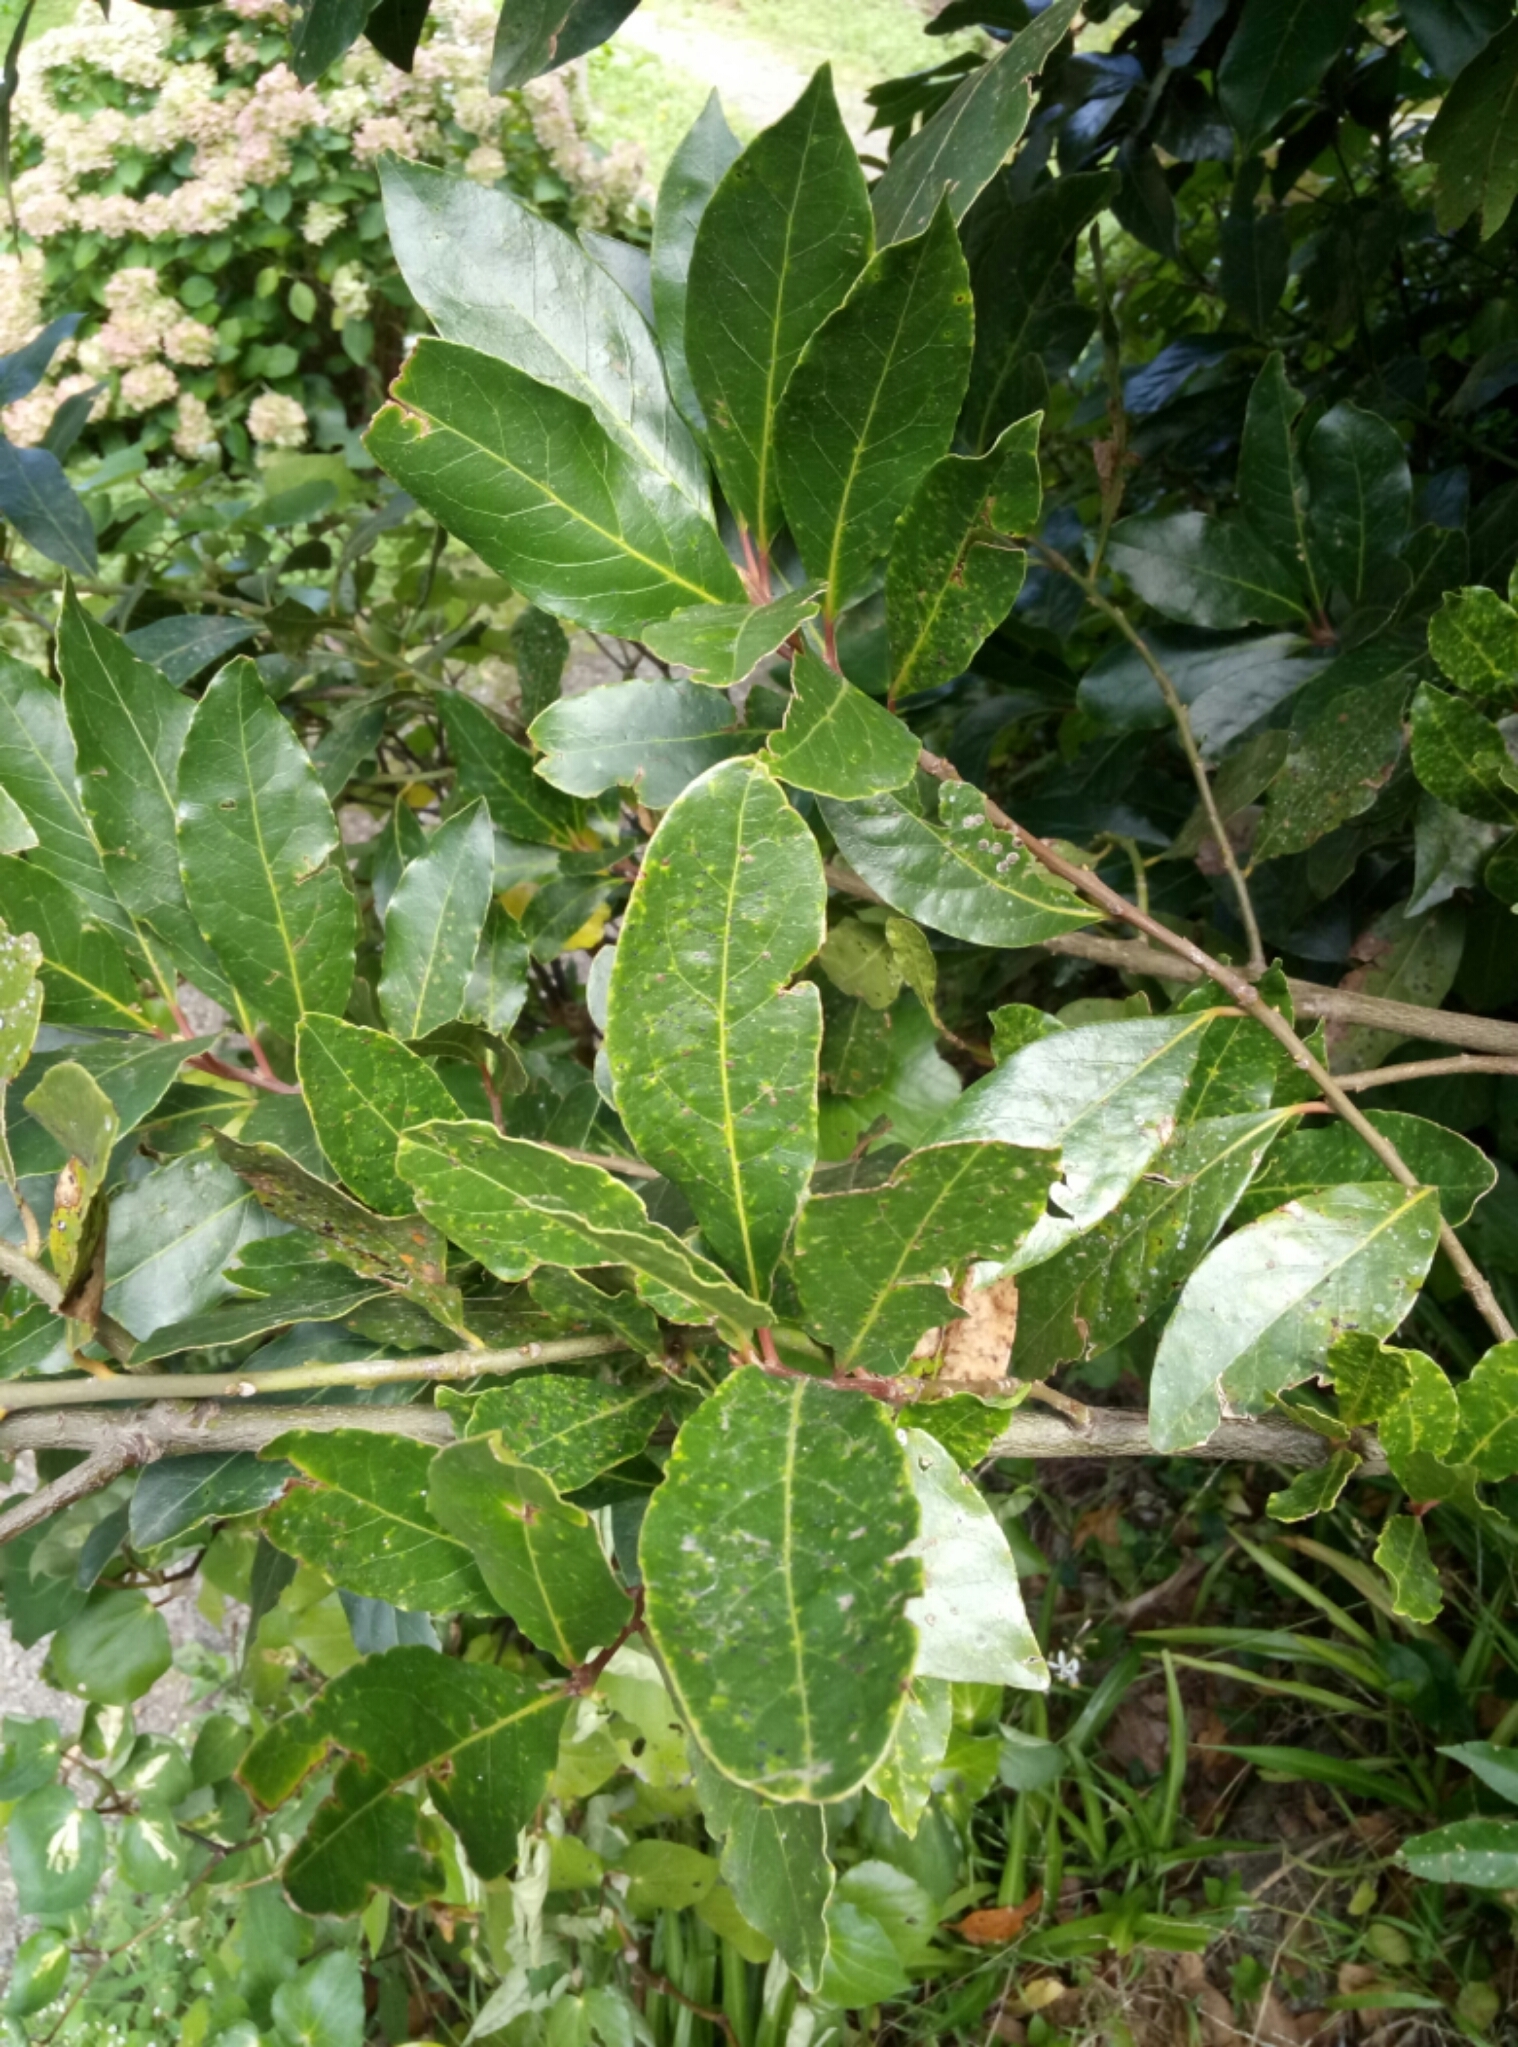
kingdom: Plantae
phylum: Tracheophyta
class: Magnoliopsida
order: Rosales
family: Rosaceae
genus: Prunus
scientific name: Prunus laurocerasus
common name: Cherry laurel
